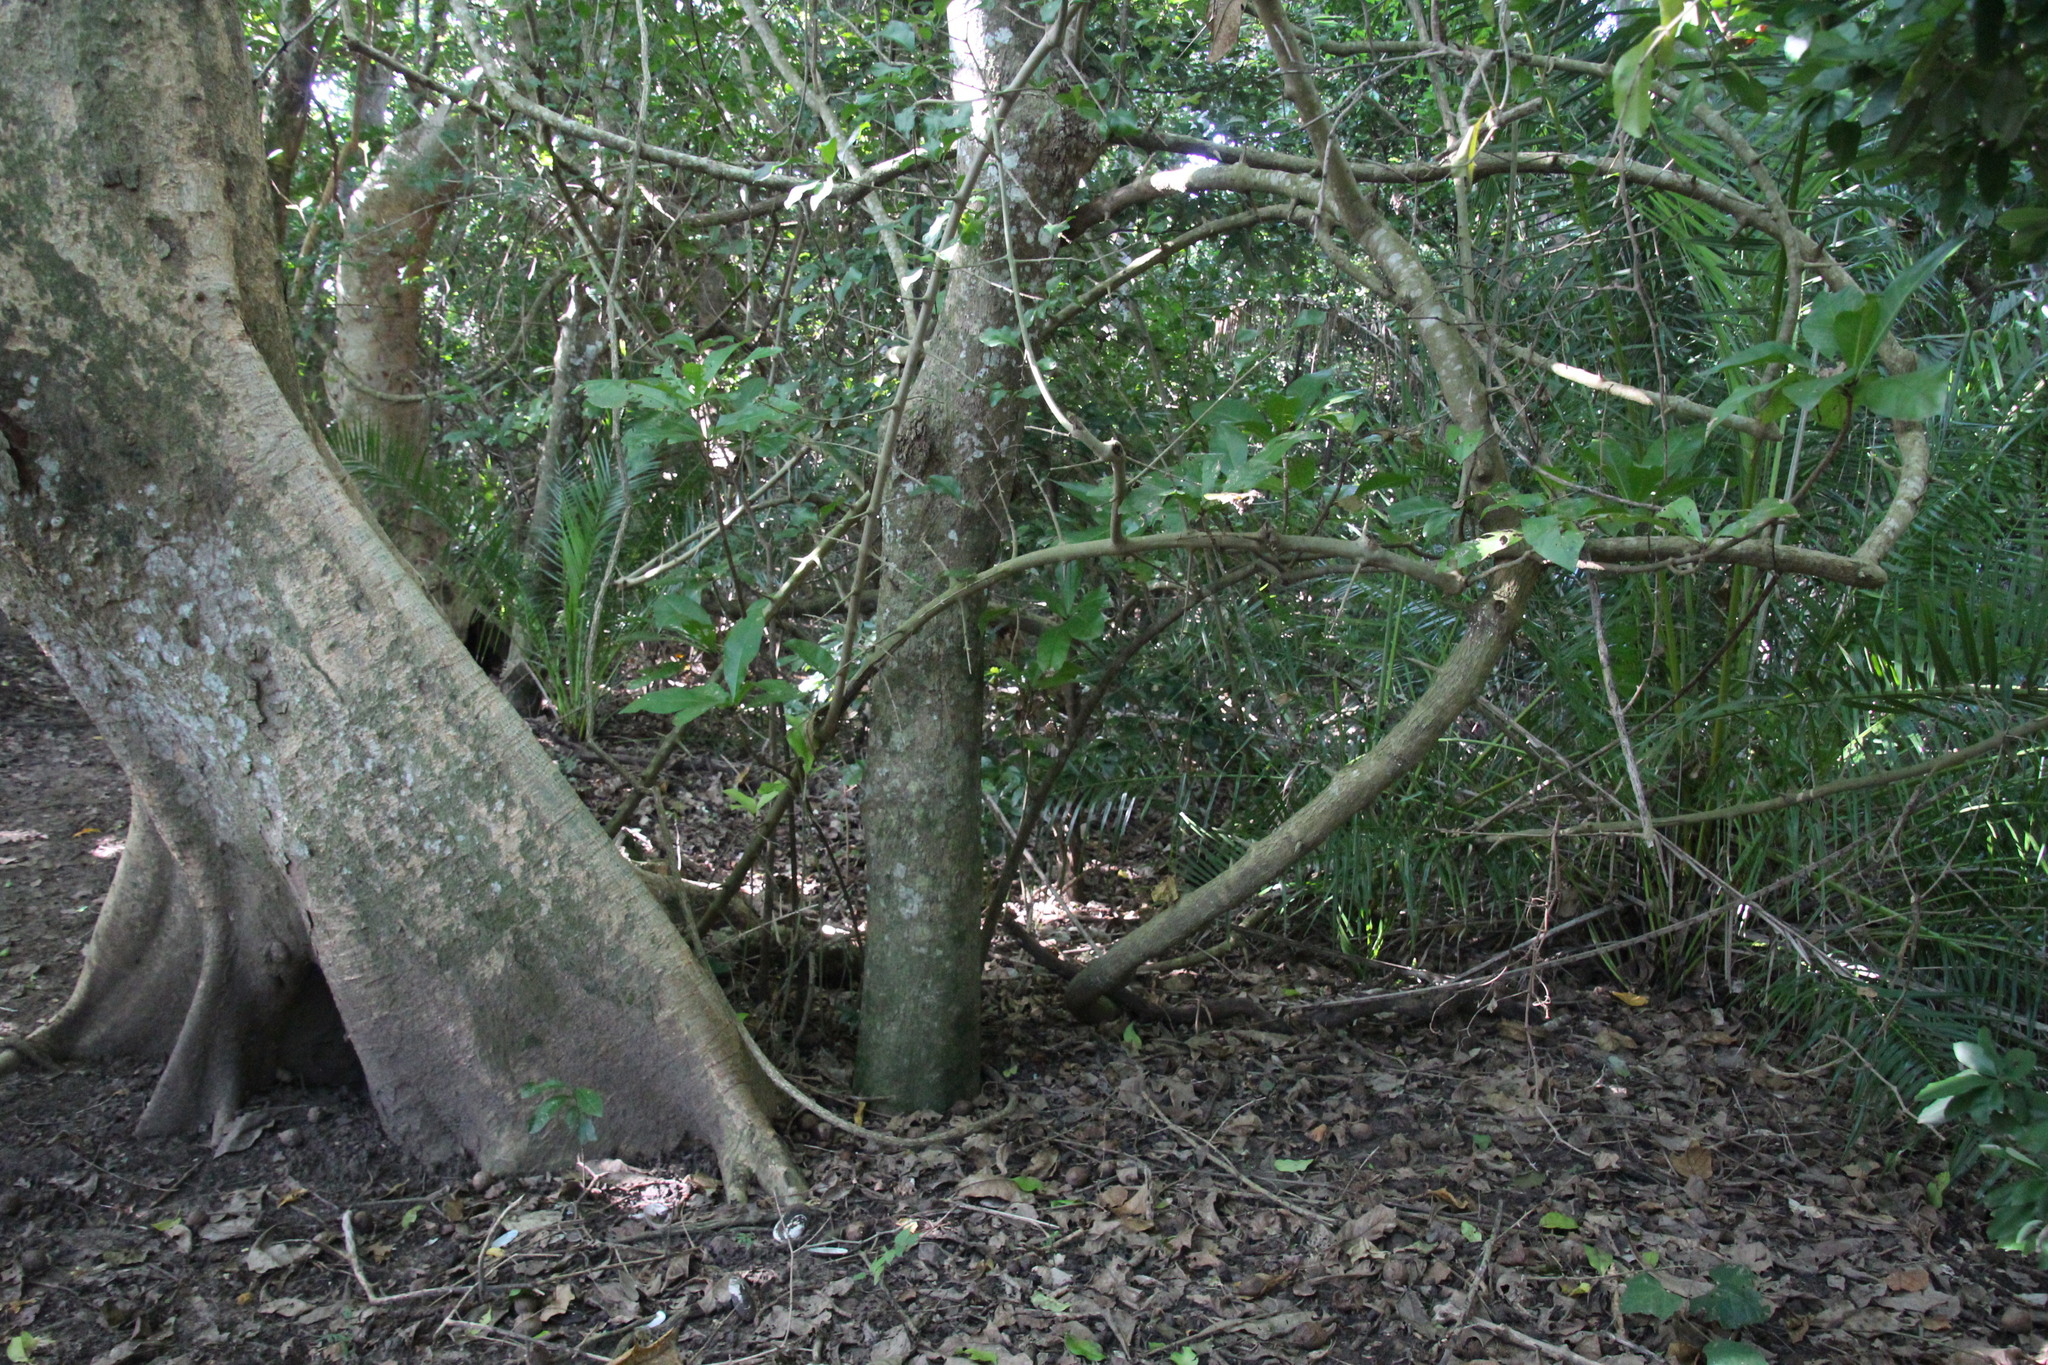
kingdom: Plantae
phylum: Tracheophyta
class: Liliopsida
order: Arecales
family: Arecaceae
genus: Phoenix
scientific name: Phoenix reclinata
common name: Senegal date palm
